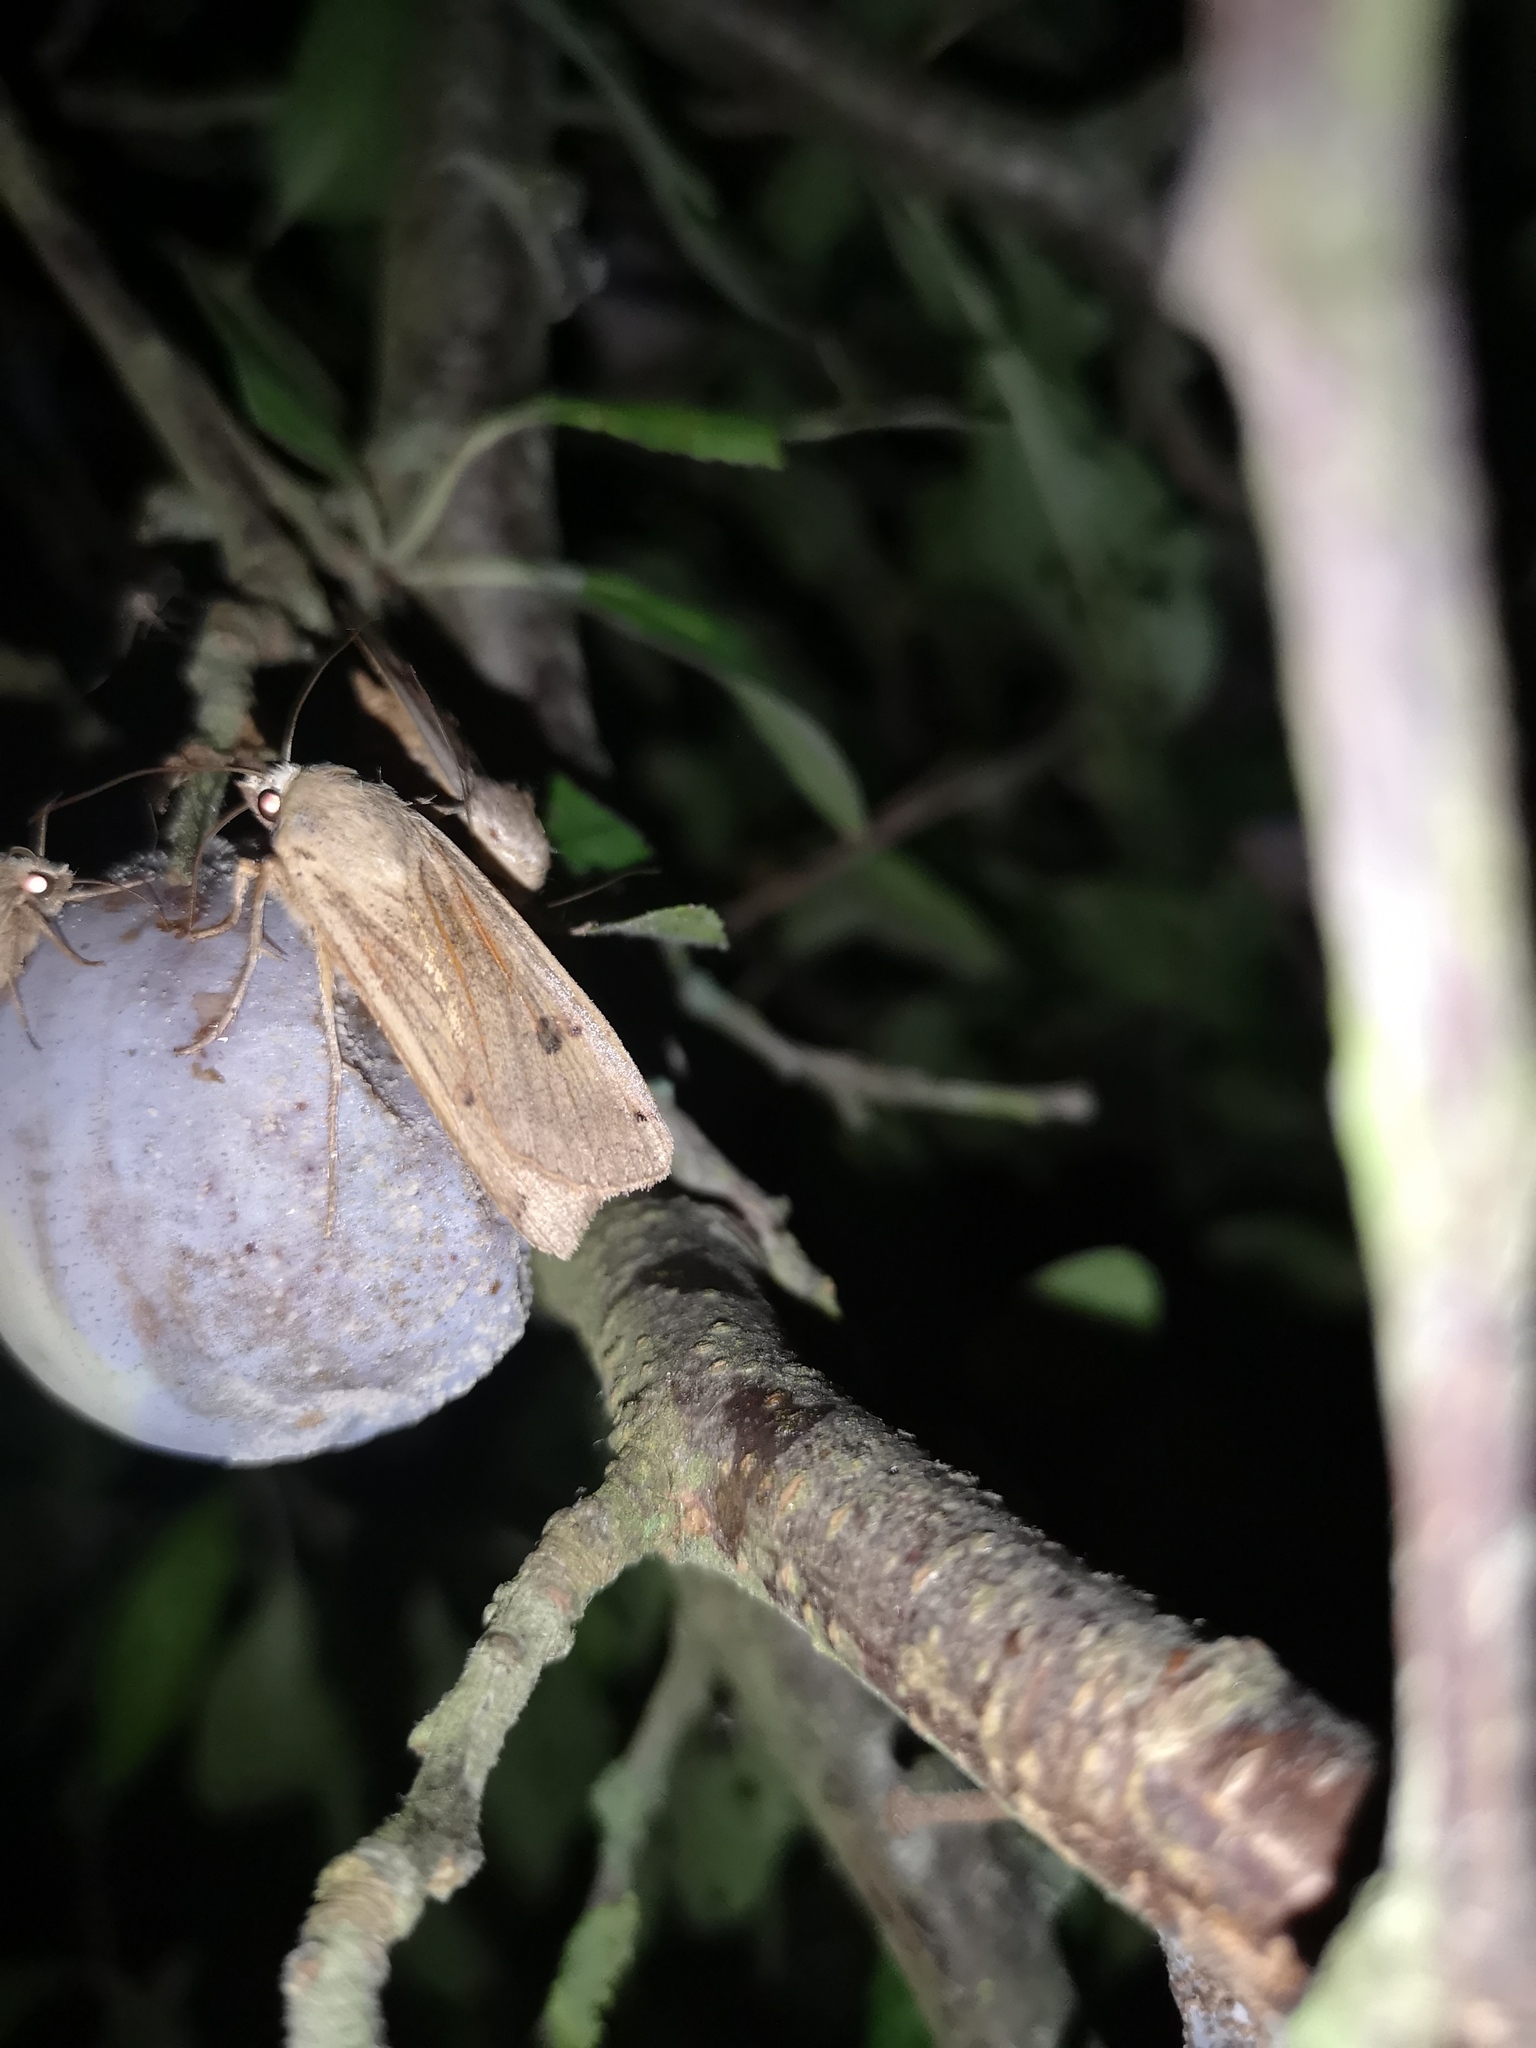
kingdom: Animalia
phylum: Arthropoda
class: Insecta
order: Lepidoptera
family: Noctuidae
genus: Noctua
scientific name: Noctua pronuba
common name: Large yellow underwing
